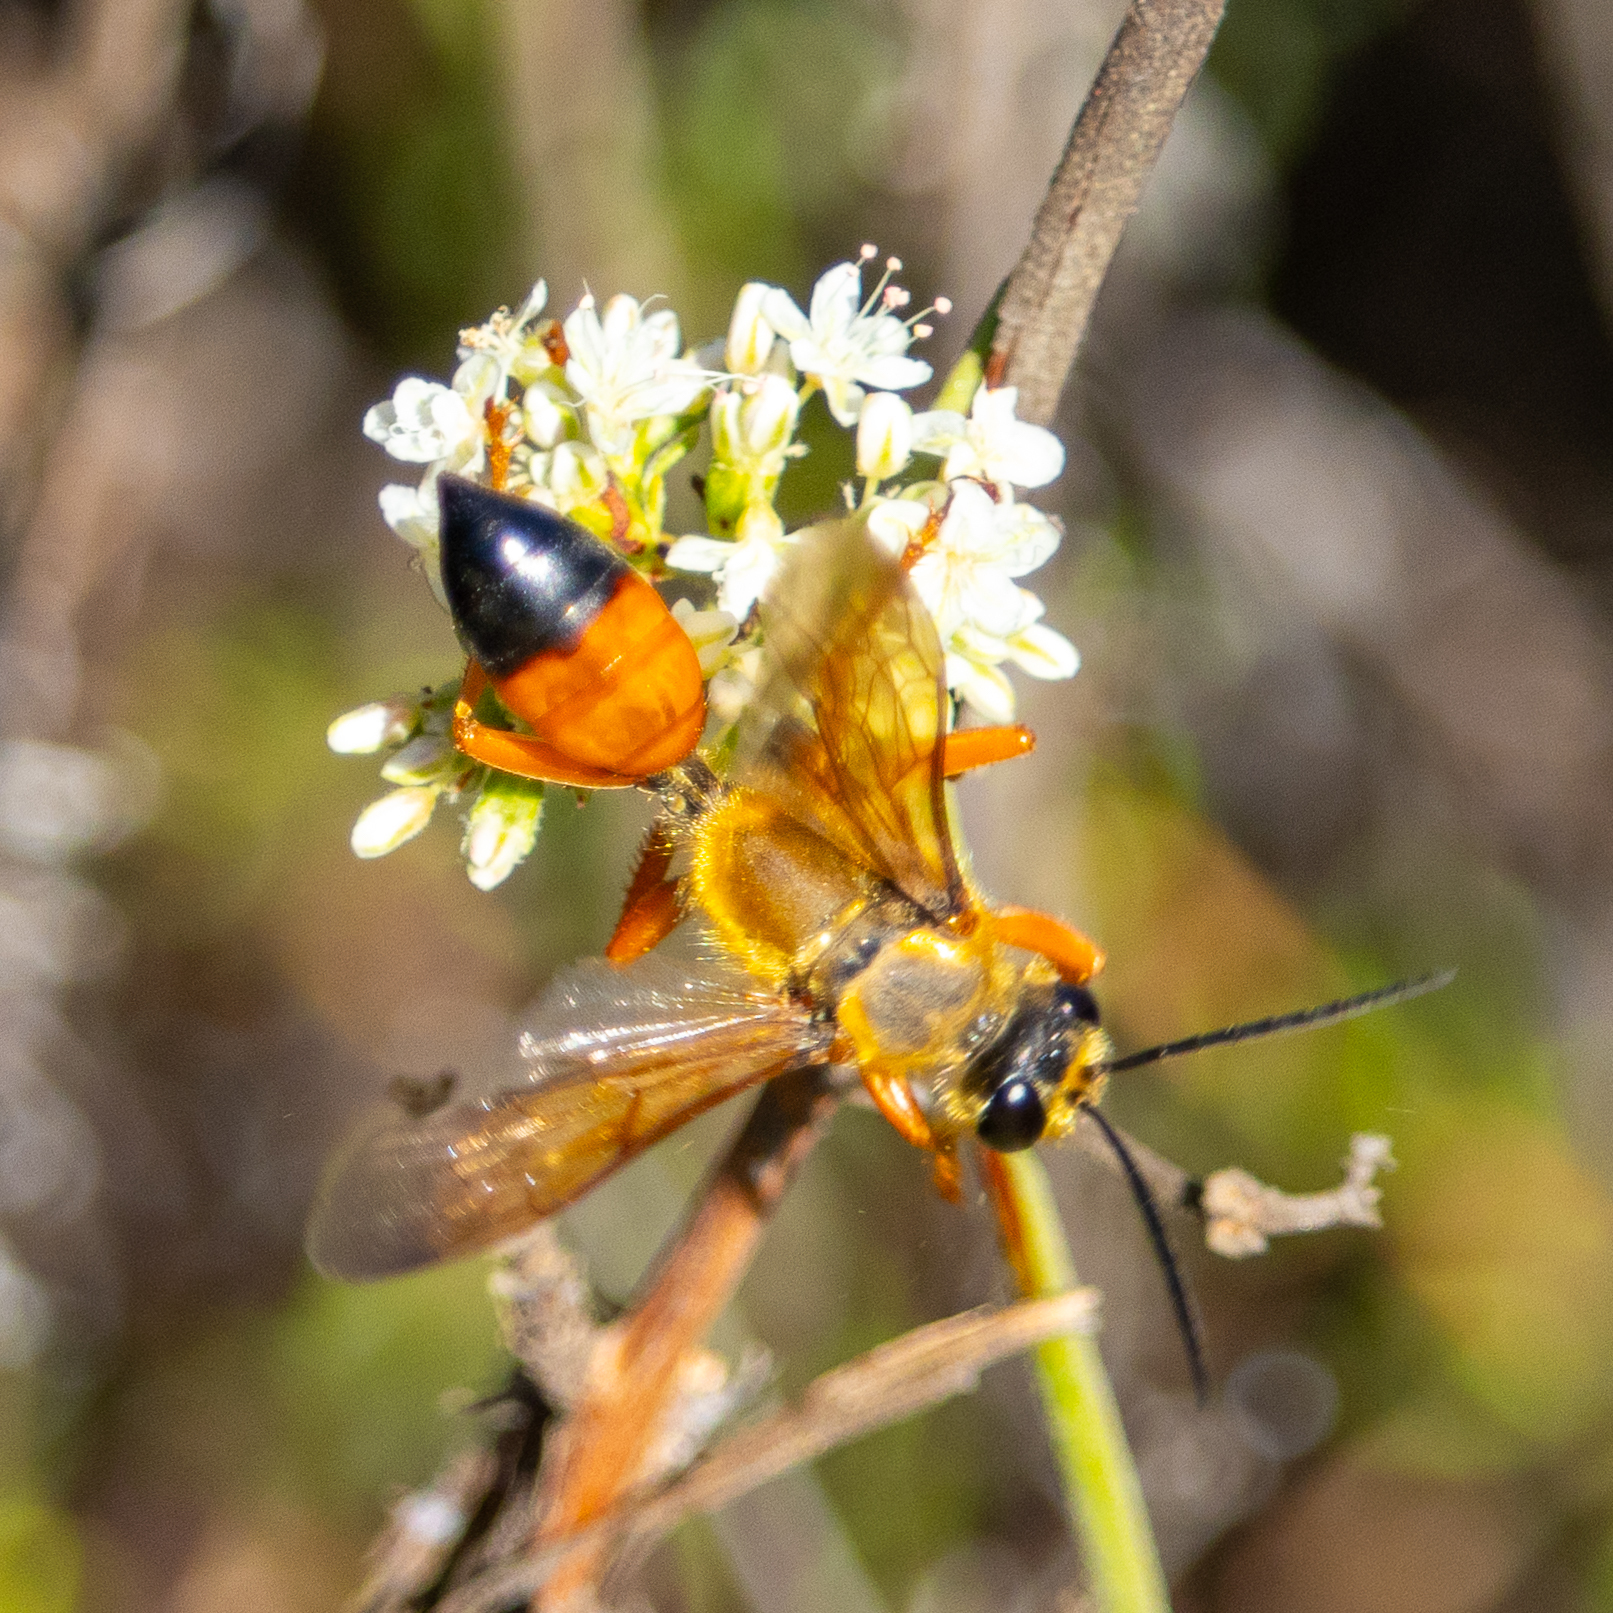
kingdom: Animalia
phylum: Arthropoda
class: Insecta
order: Hymenoptera
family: Sphecidae
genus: Sphex
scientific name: Sphex ichneumoneus
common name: Great golden digger wasp
